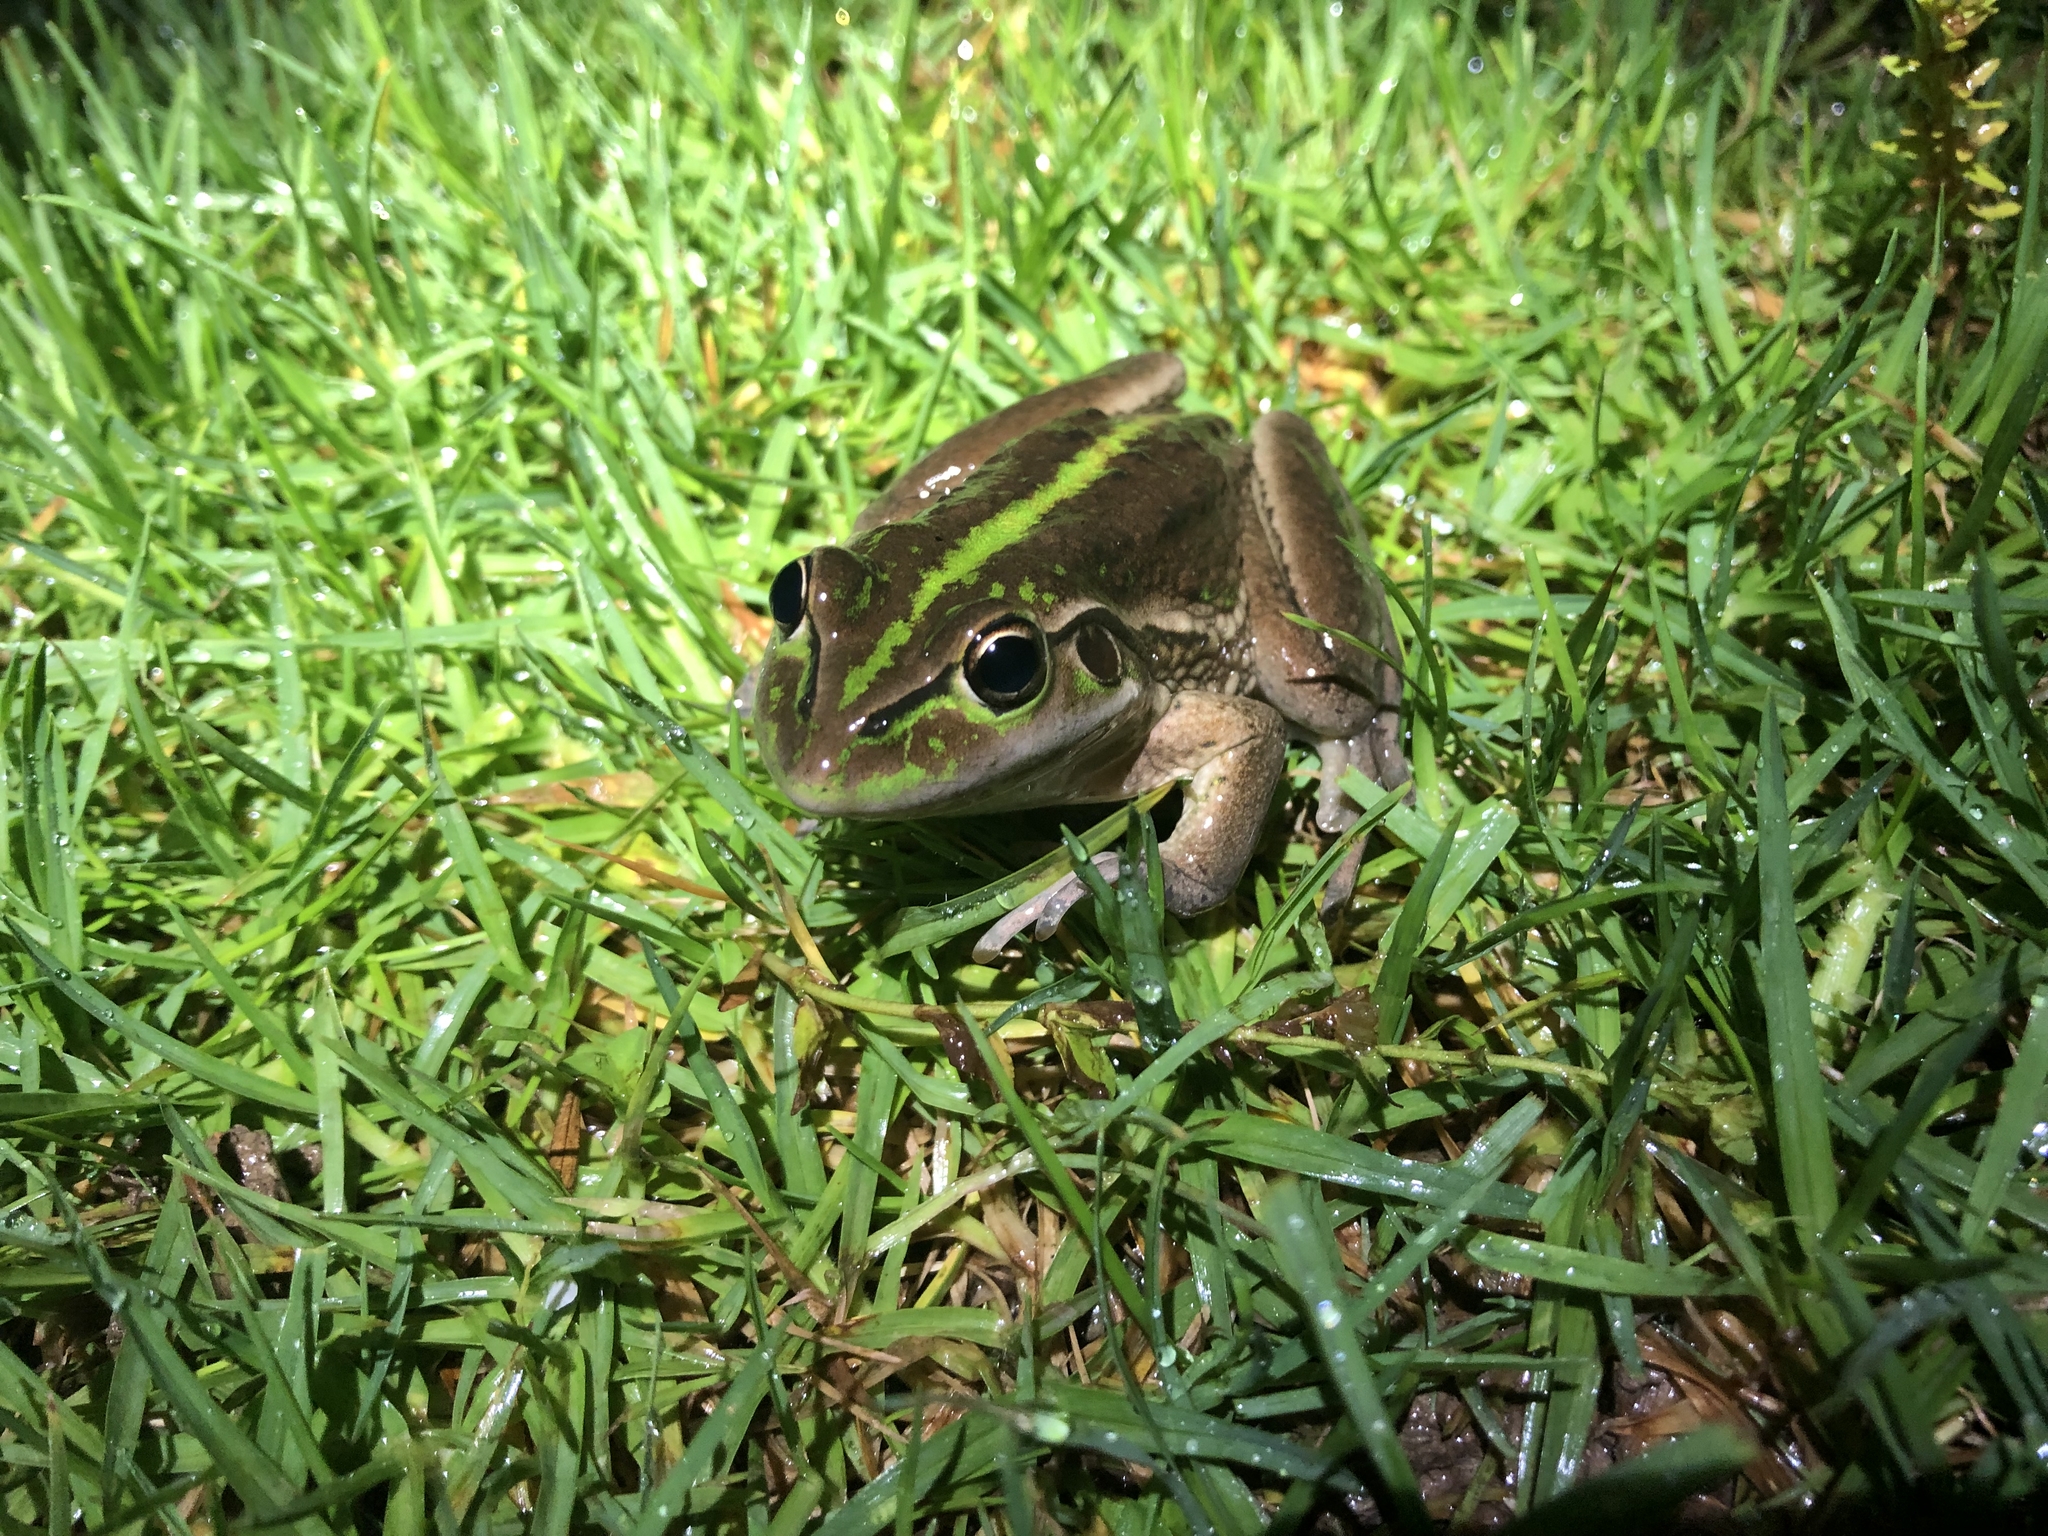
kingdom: Animalia
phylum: Chordata
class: Amphibia
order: Anura
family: Pelodryadidae
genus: Ranoidea
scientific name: Ranoidea raniformis
